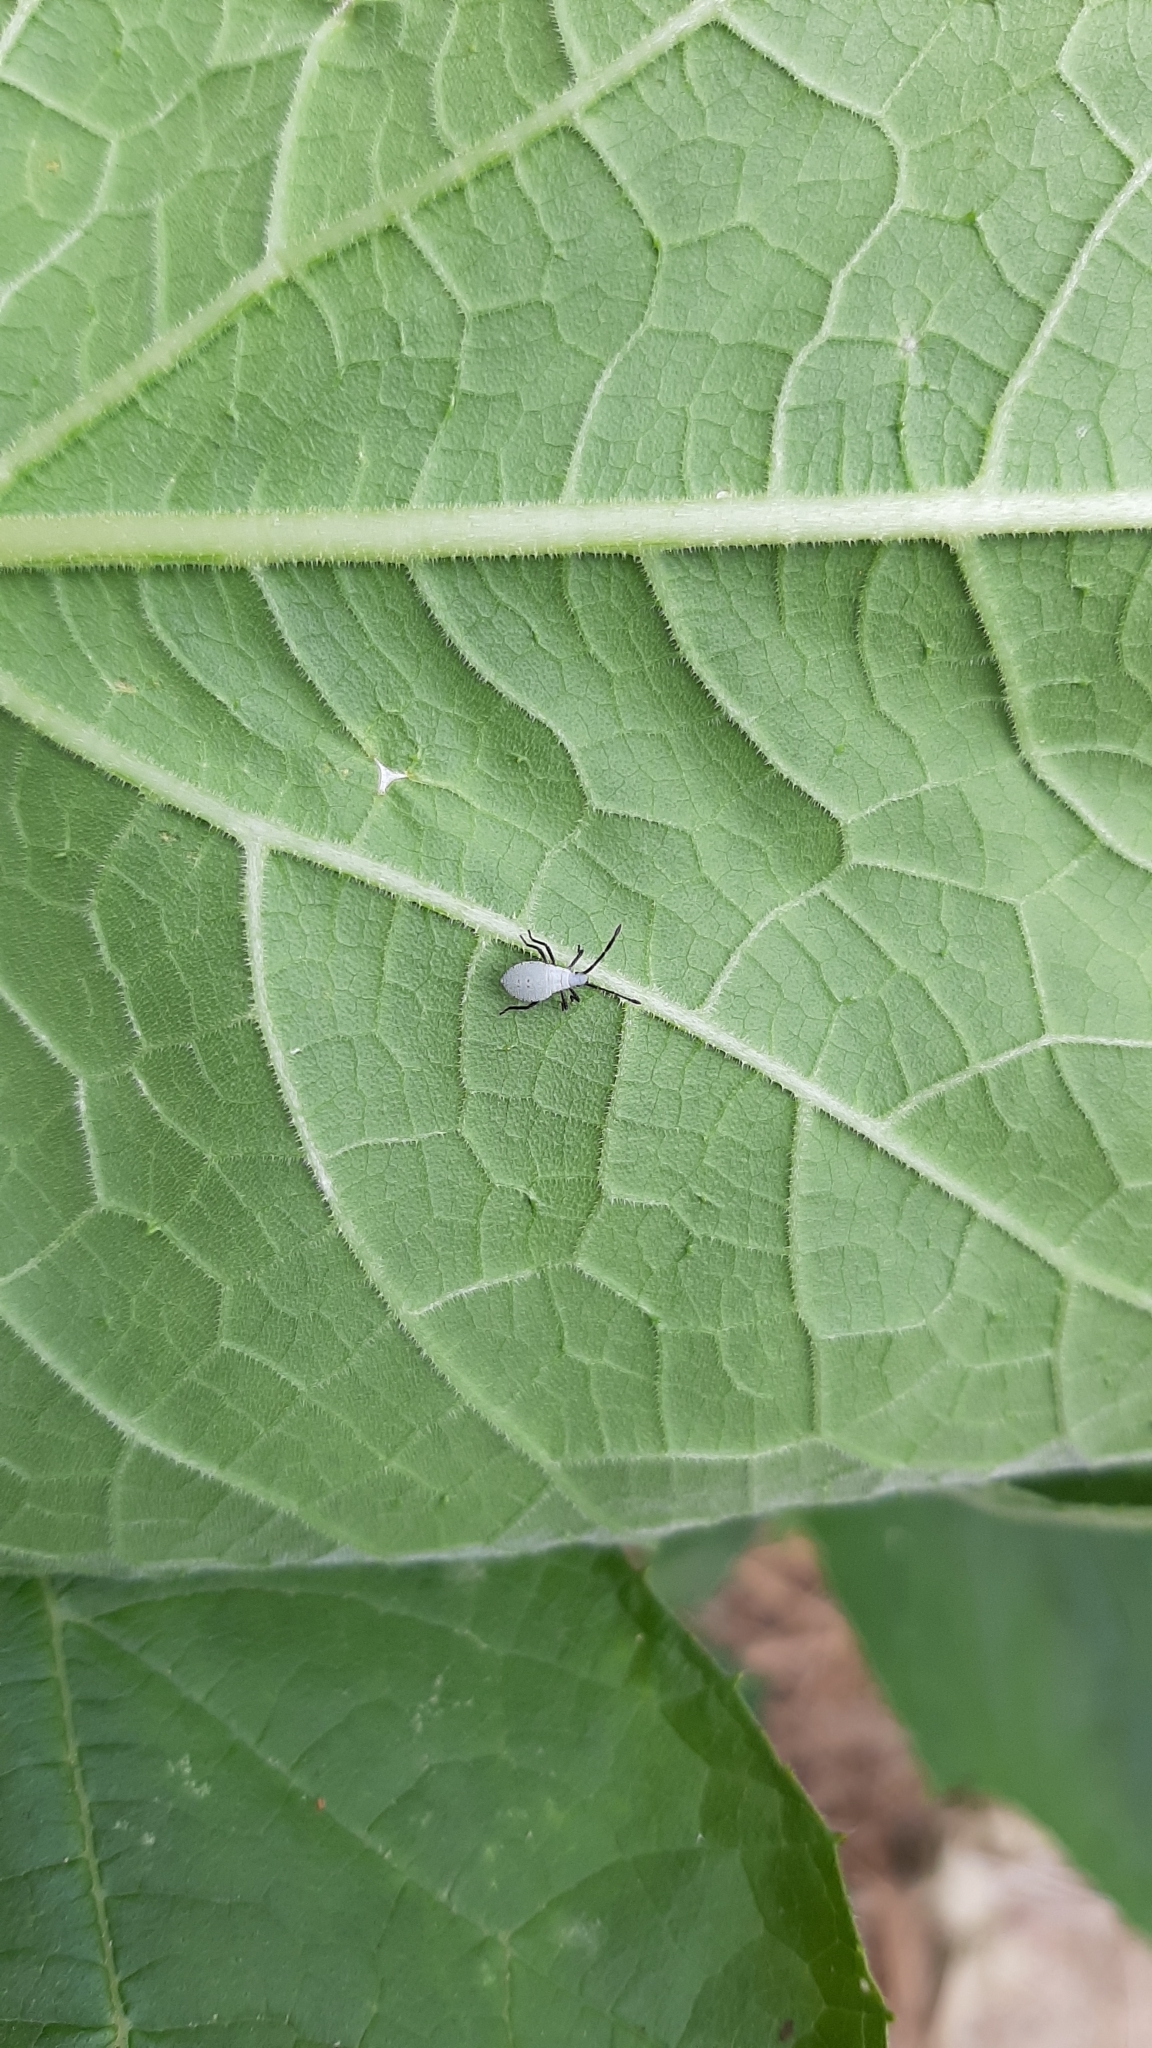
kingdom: Animalia
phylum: Arthropoda
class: Insecta
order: Hemiptera
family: Coreidae
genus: Anasa
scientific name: Anasa tristis
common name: Squash bug
